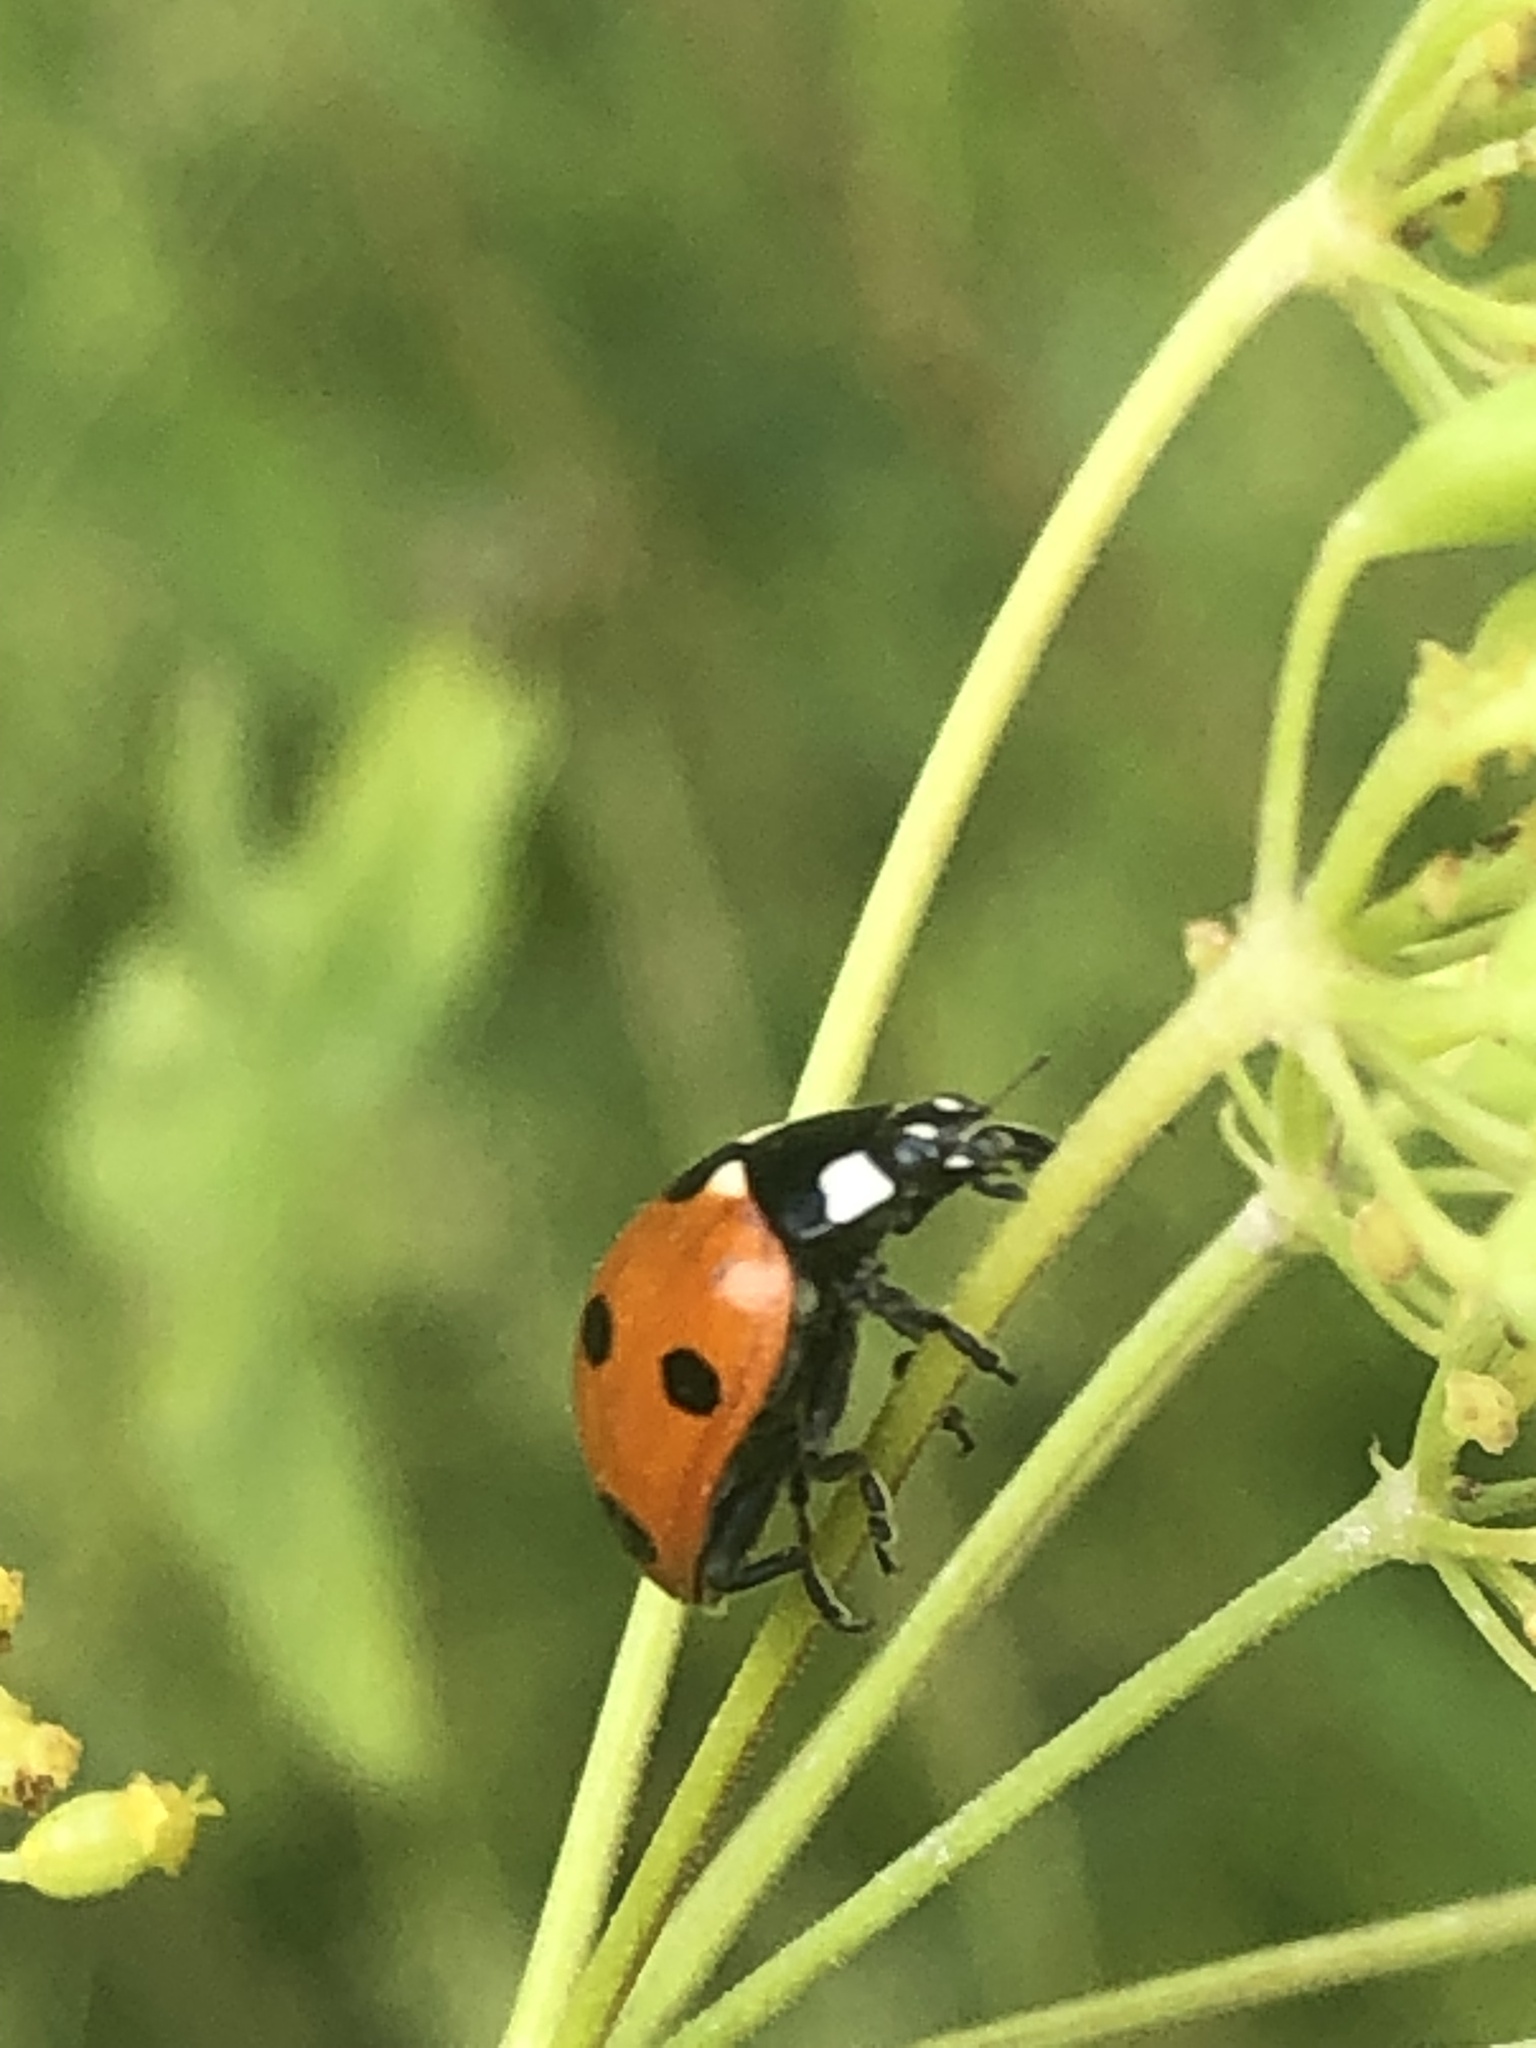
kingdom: Animalia
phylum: Arthropoda
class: Insecta
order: Coleoptera
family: Coccinellidae
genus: Coccinella
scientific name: Coccinella septempunctata
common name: Sevenspotted lady beetle
